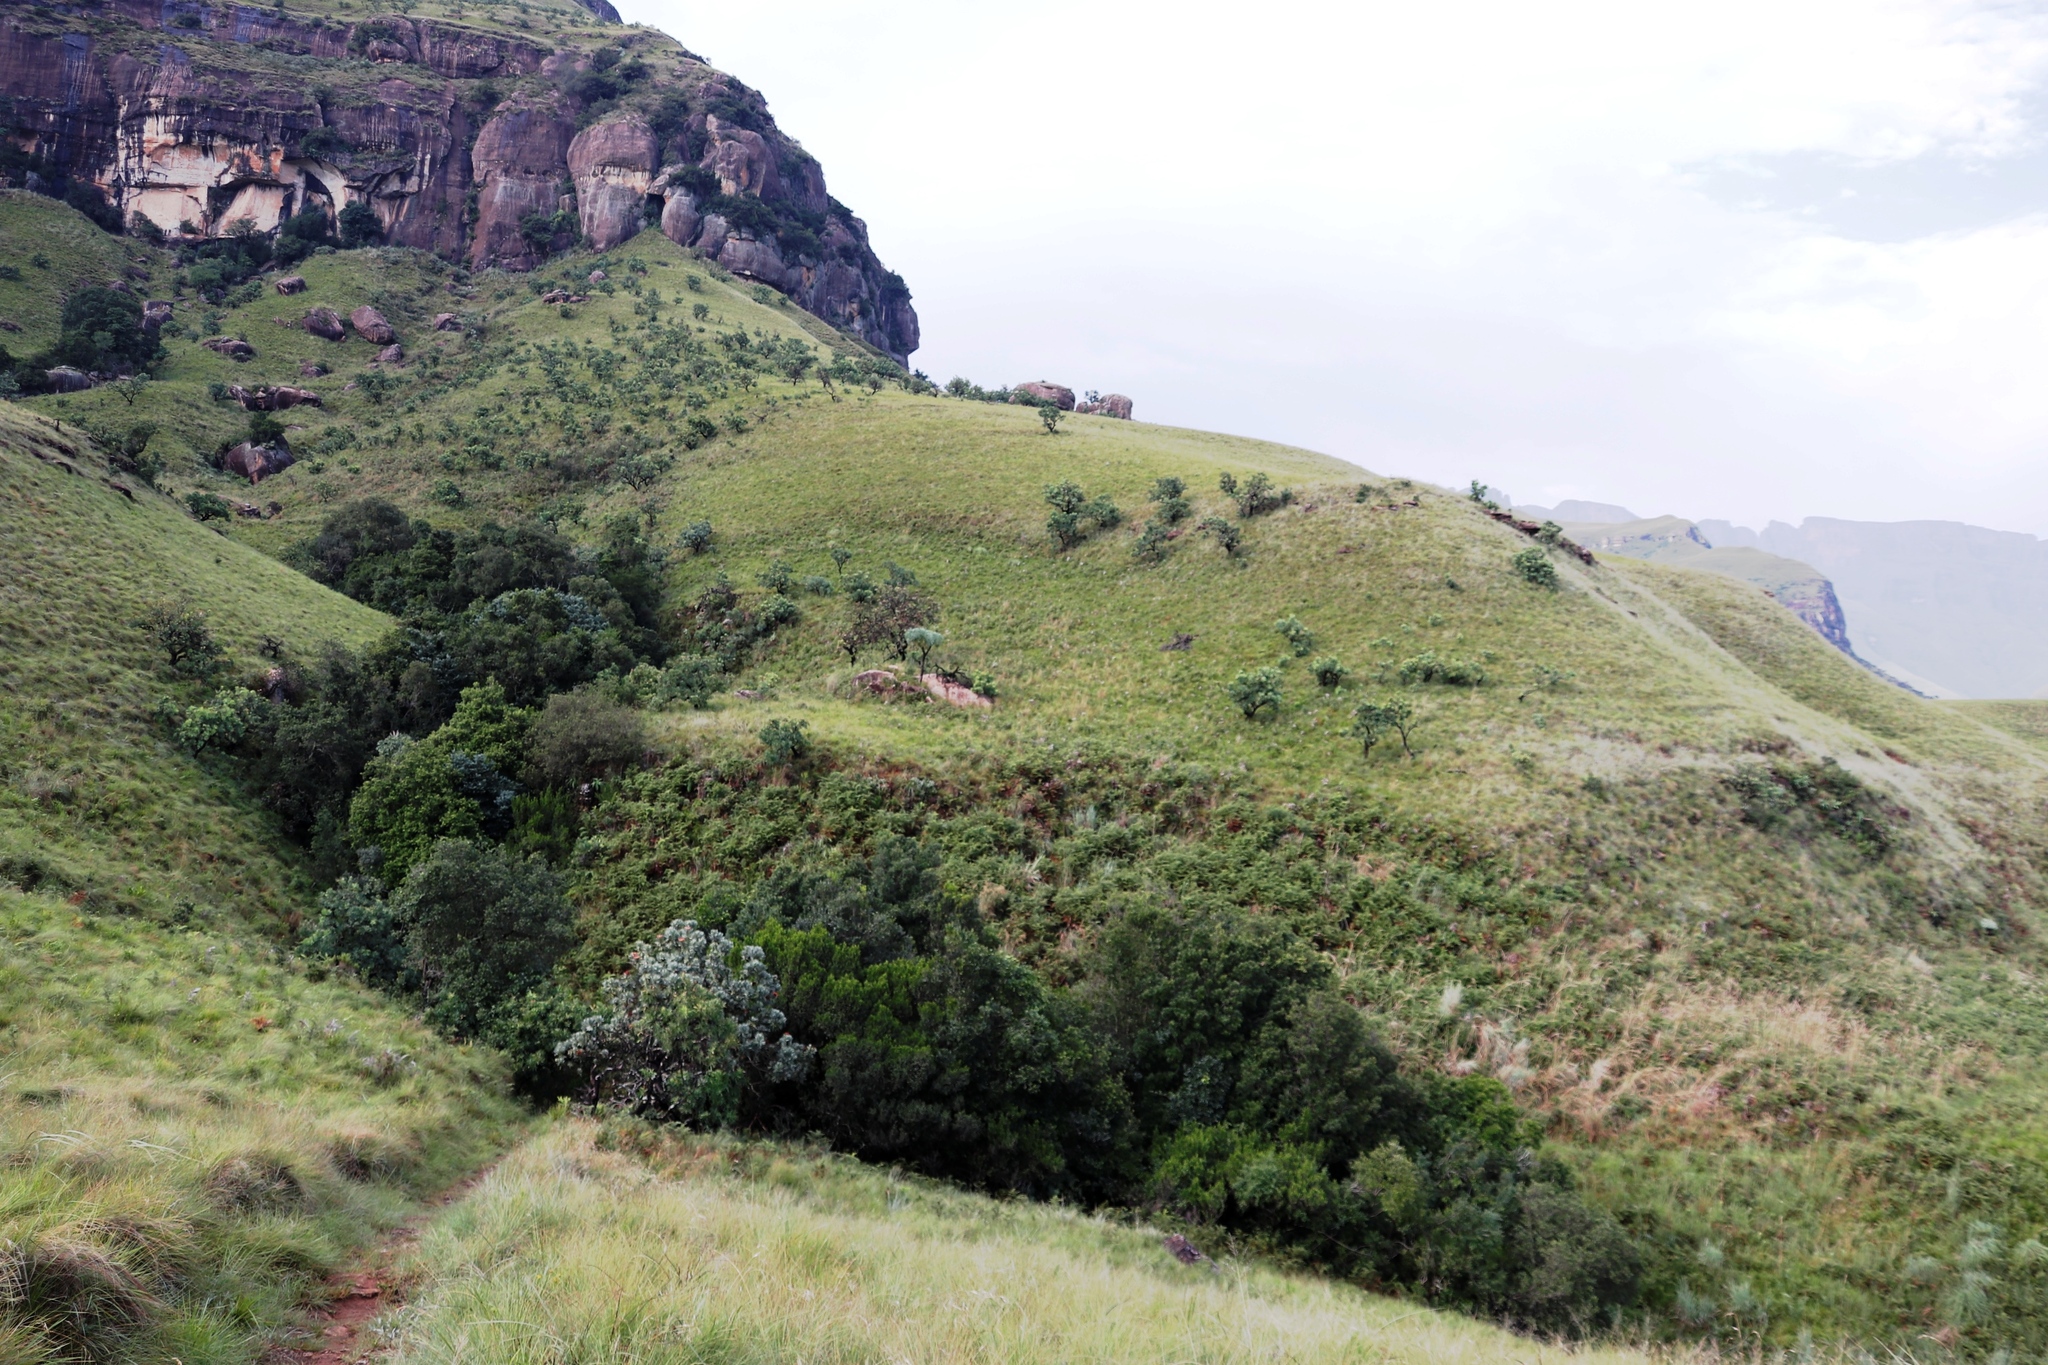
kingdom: Plantae
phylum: Tracheophyta
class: Magnoliopsida
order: Proteales
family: Proteaceae
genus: Protea
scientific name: Protea caffra
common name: Common sugarbush
